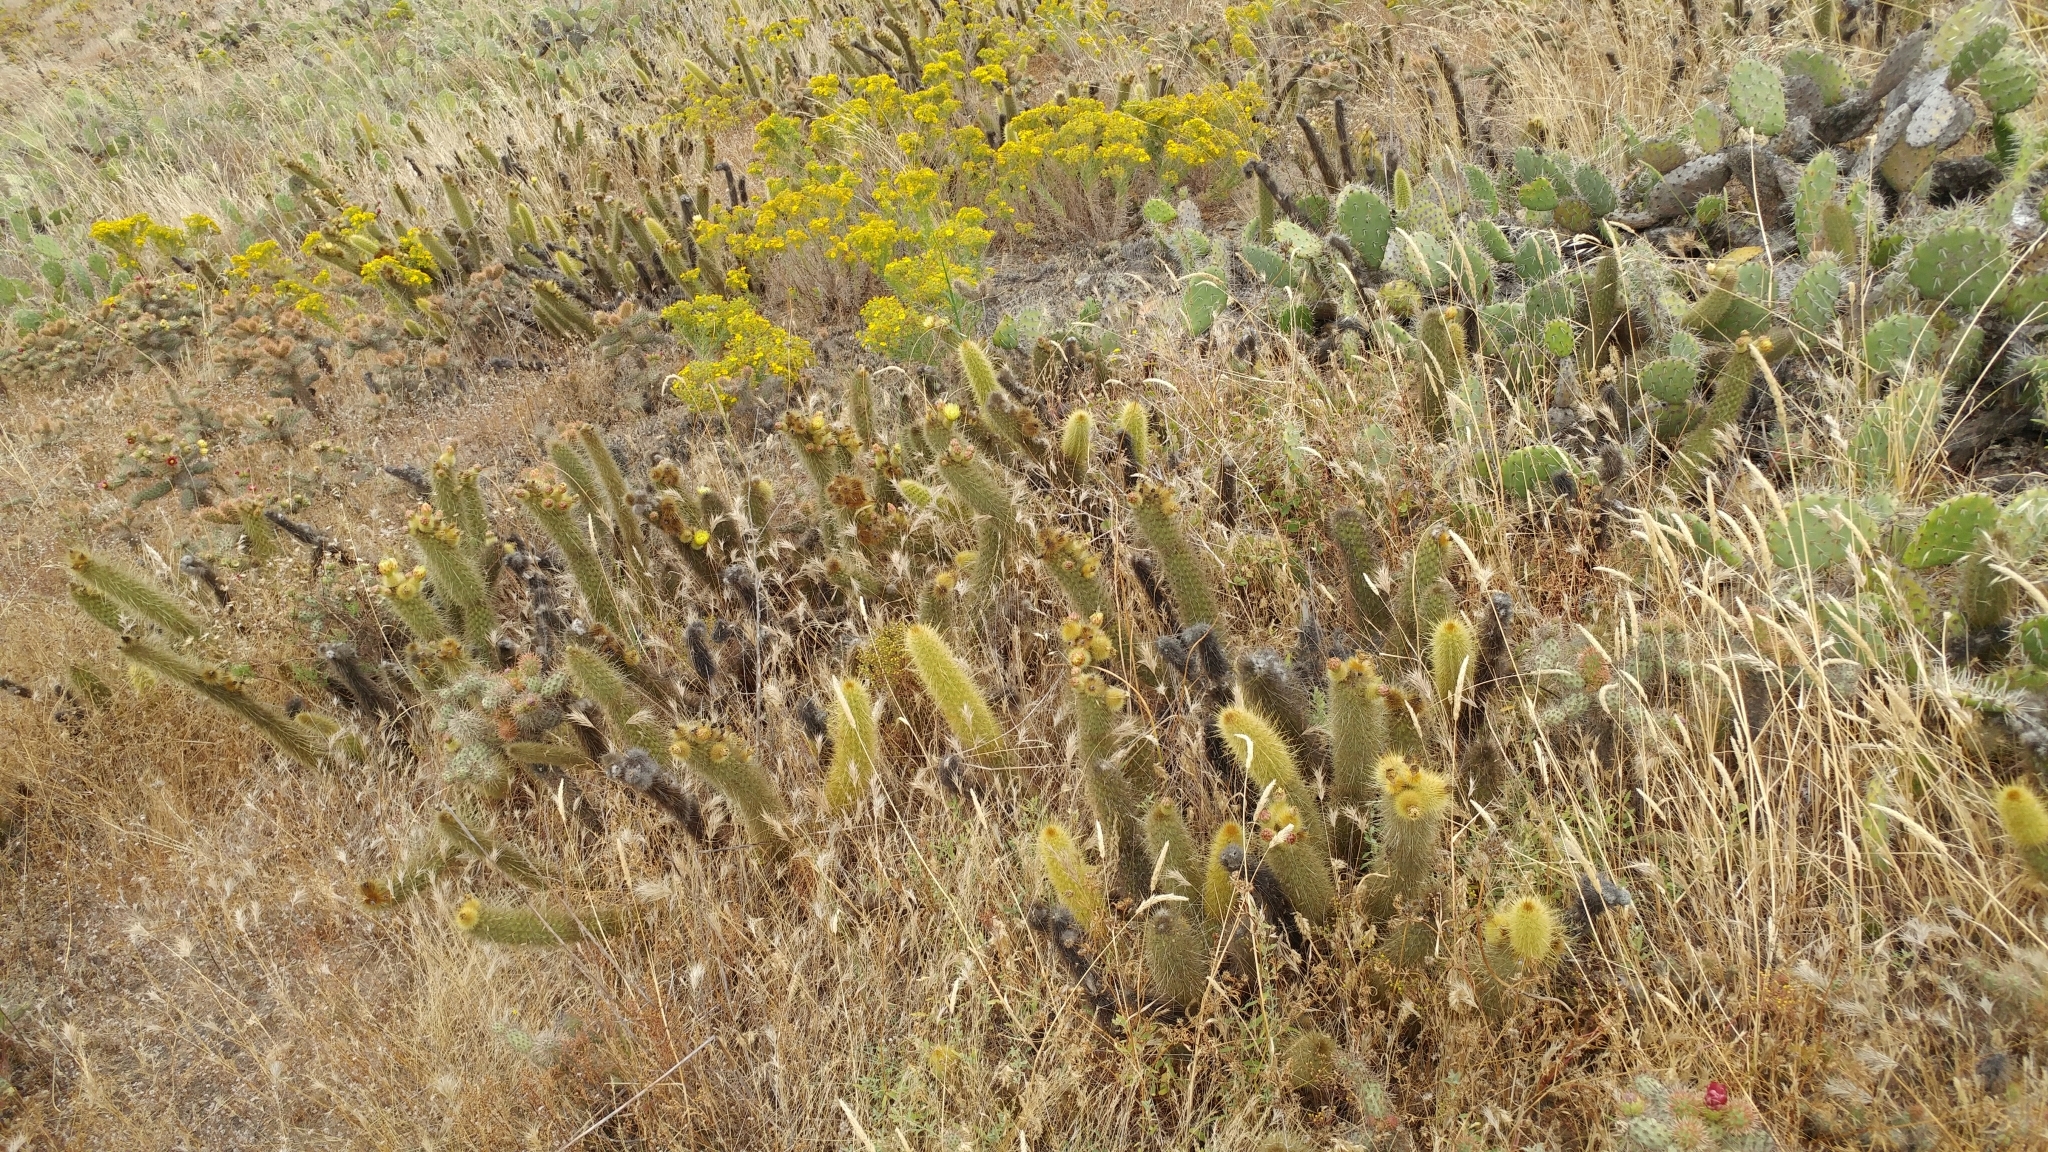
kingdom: Plantae
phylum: Tracheophyta
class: Magnoliopsida
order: Caryophyllales
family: Cactaceae
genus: Bergerocactus
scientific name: Bergerocactus emoryi
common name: Golden snakecactus
